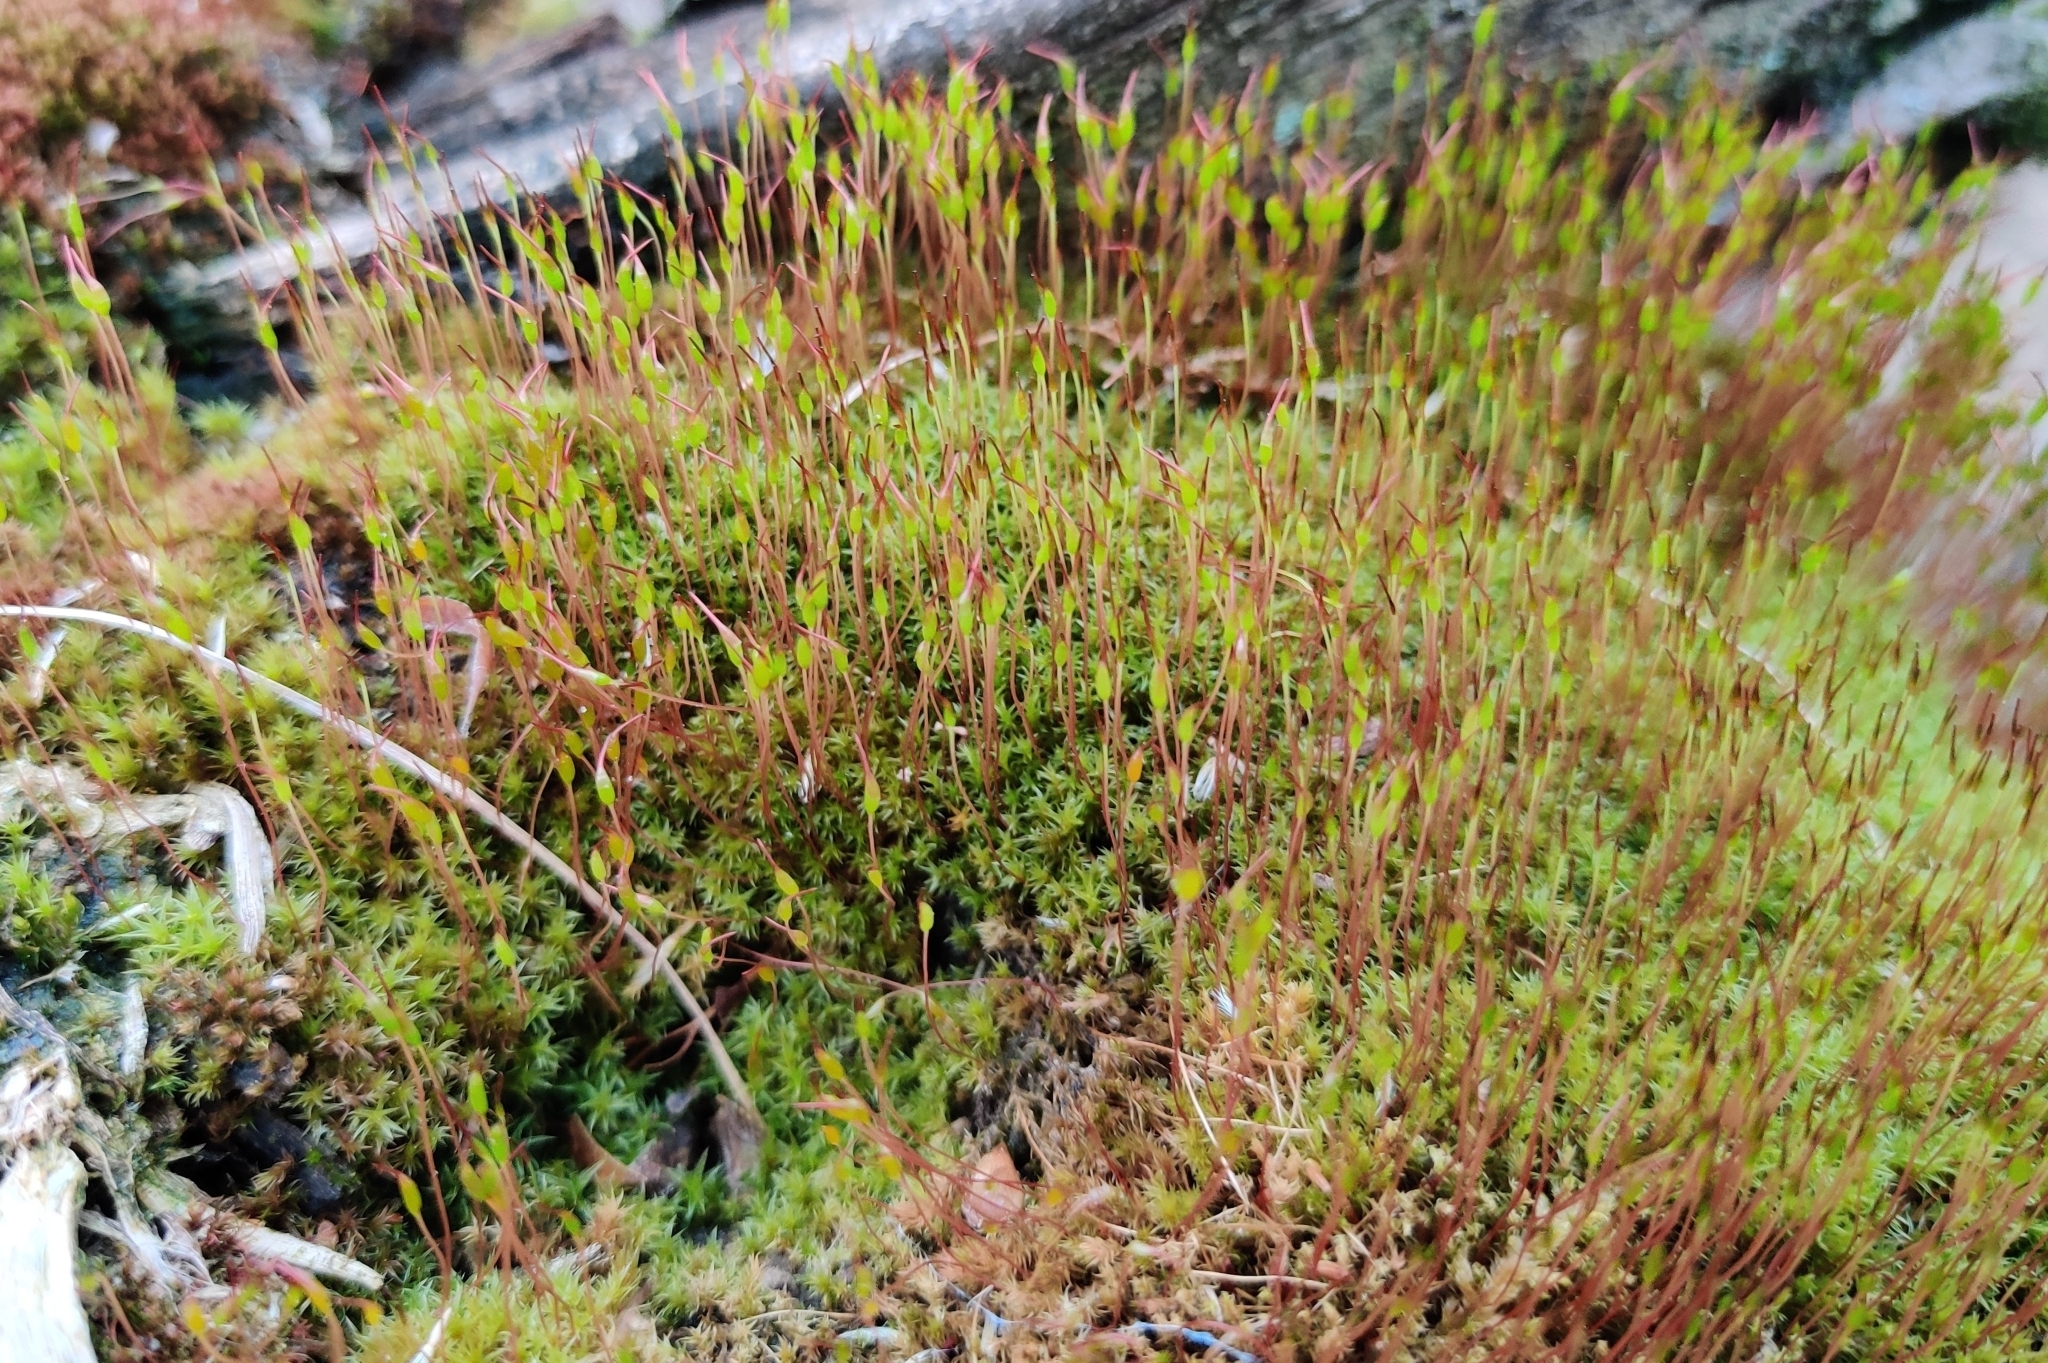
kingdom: Plantae
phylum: Bryophyta
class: Bryopsida
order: Dicranales
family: Ditrichaceae
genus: Ceratodon
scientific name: Ceratodon purpureus
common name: Redshank
